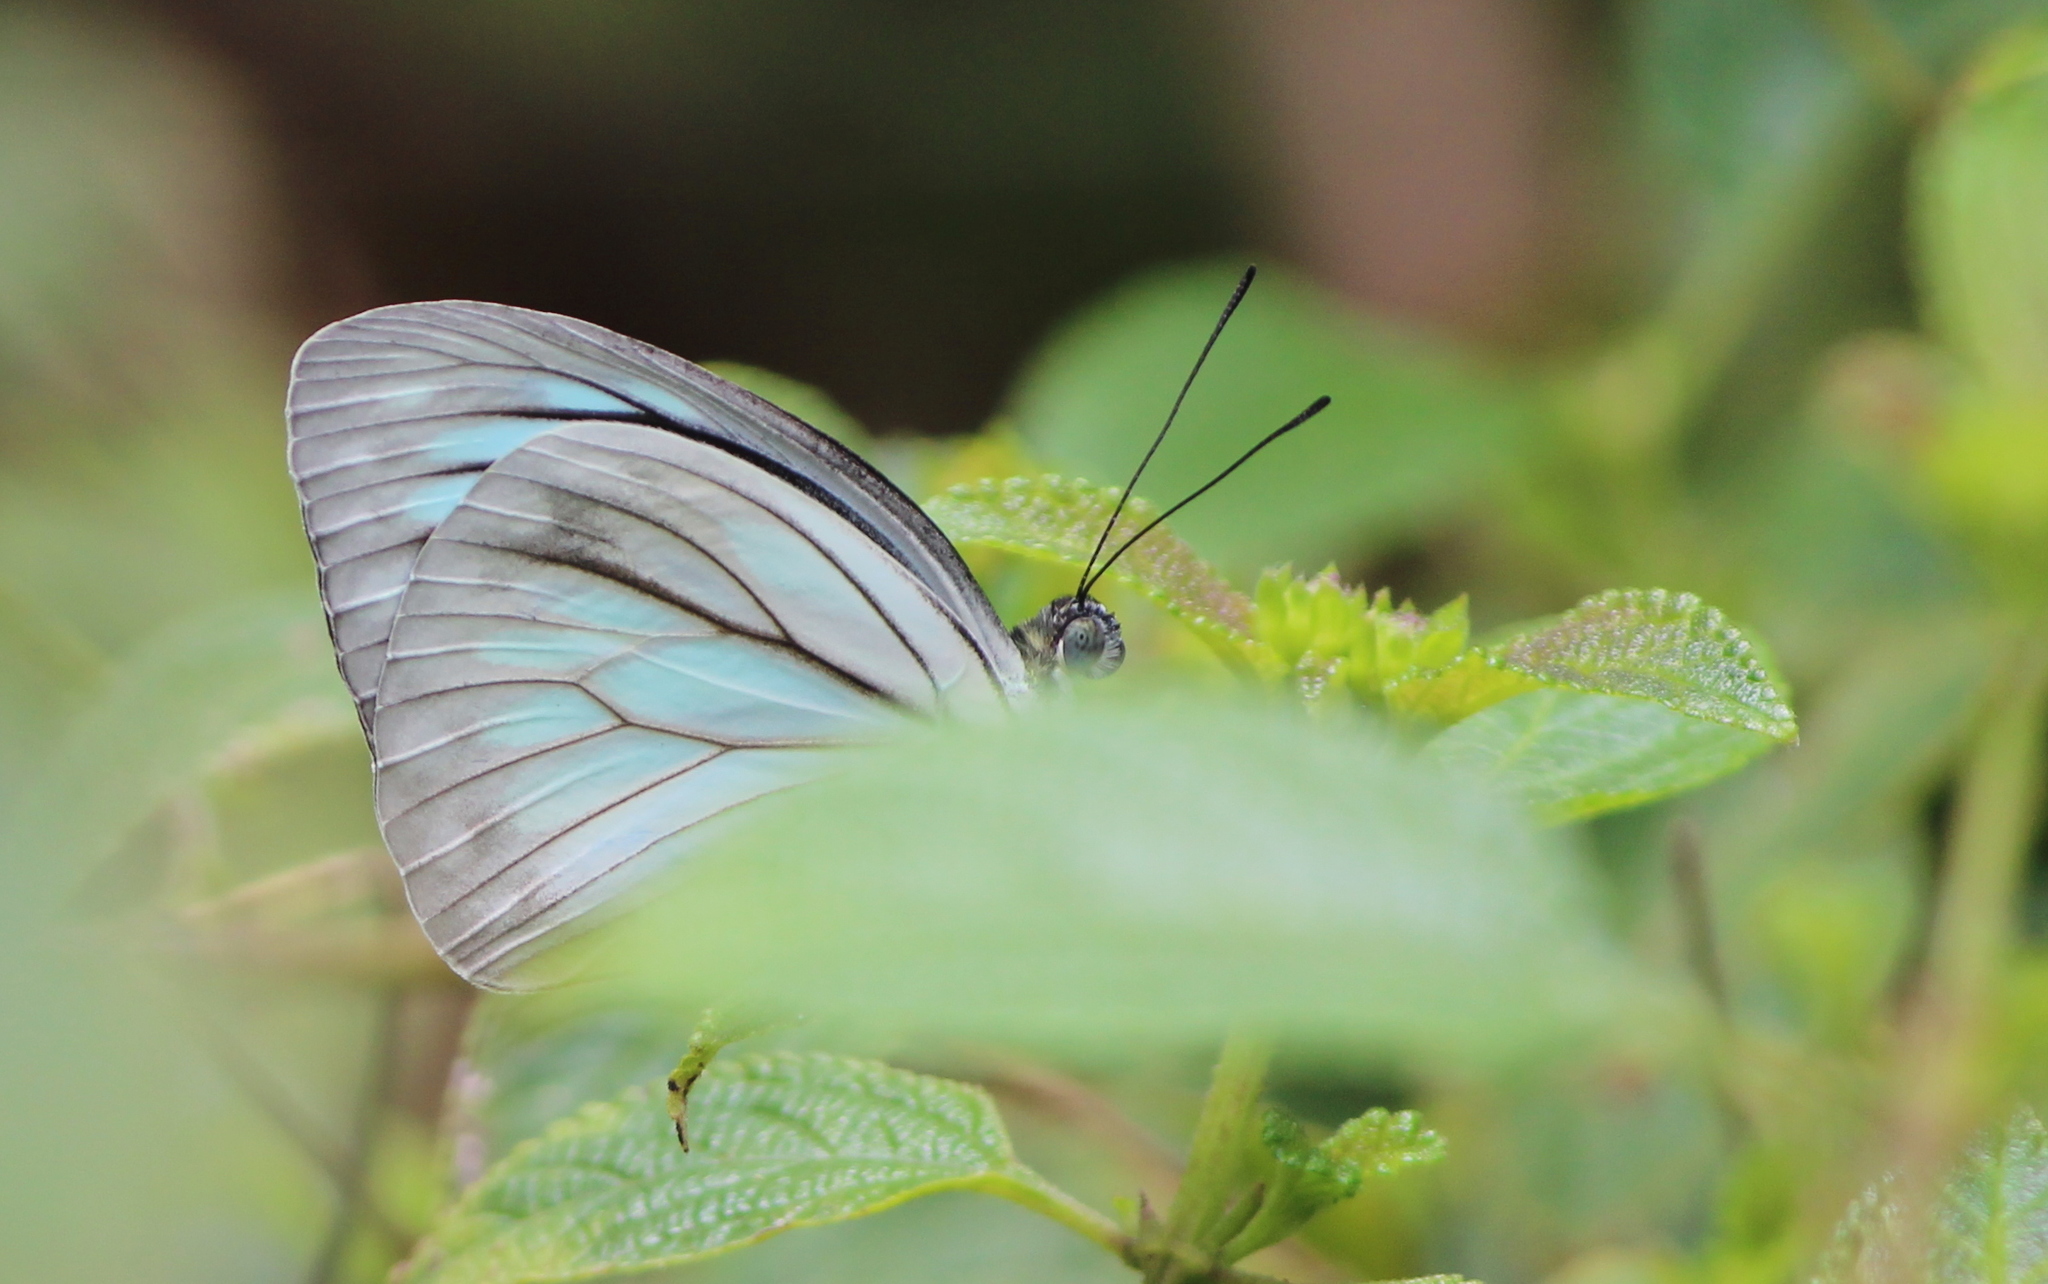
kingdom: Animalia
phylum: Arthropoda
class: Insecta
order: Lepidoptera
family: Pieridae
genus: Pareronia
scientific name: Pareronia hippia
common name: Indian wanderer
